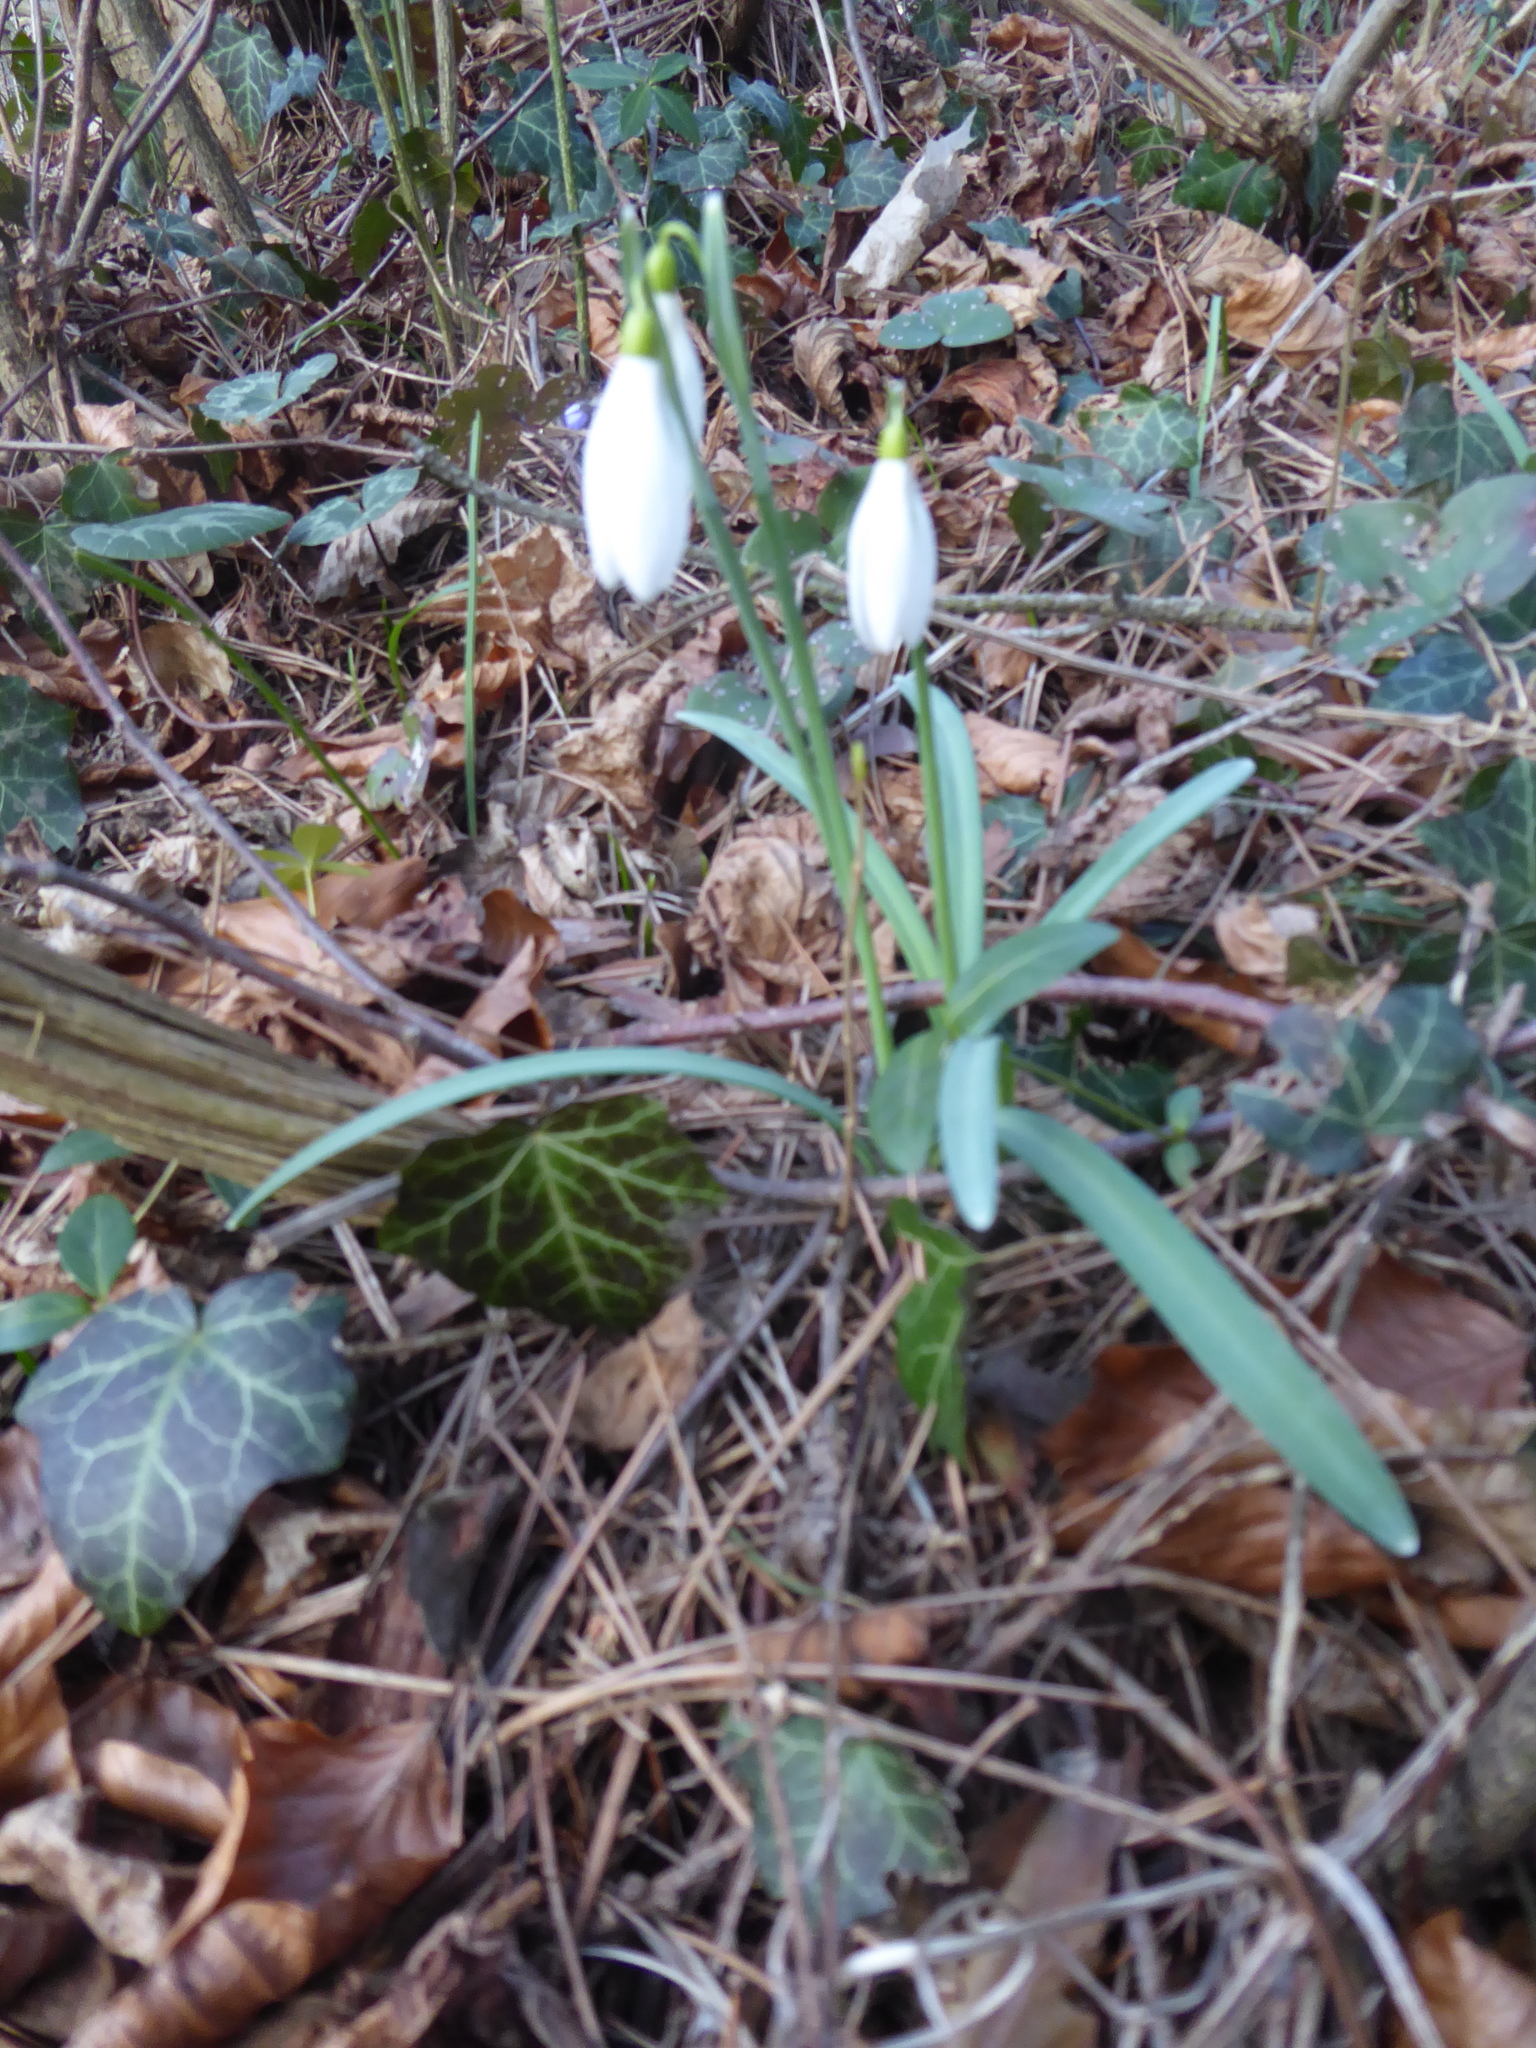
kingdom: Plantae
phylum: Tracheophyta
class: Liliopsida
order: Asparagales
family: Amaryllidaceae
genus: Galanthus
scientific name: Galanthus nivalis
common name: Snowdrop
